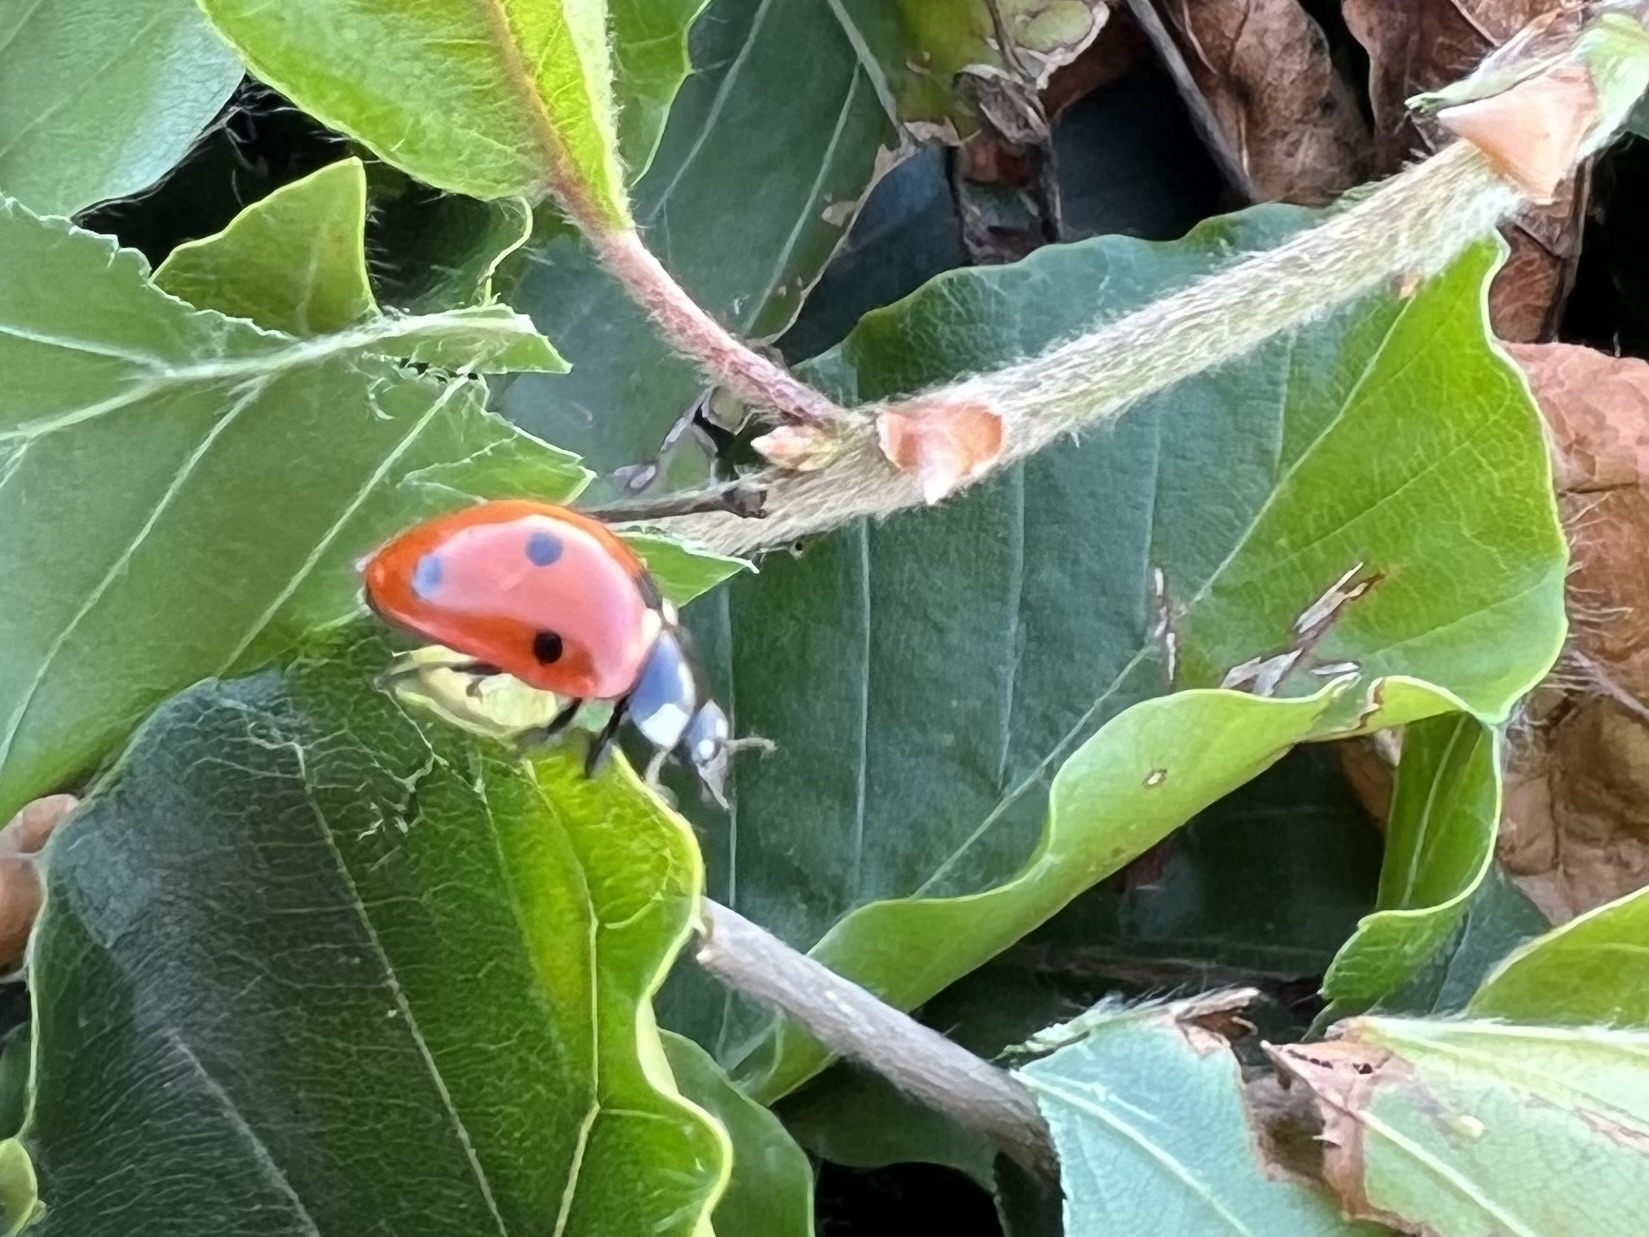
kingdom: Animalia
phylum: Arthropoda
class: Insecta
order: Coleoptera
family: Coccinellidae
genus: Coccinella
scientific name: Coccinella septempunctata
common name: Sevenspotted lady beetle
